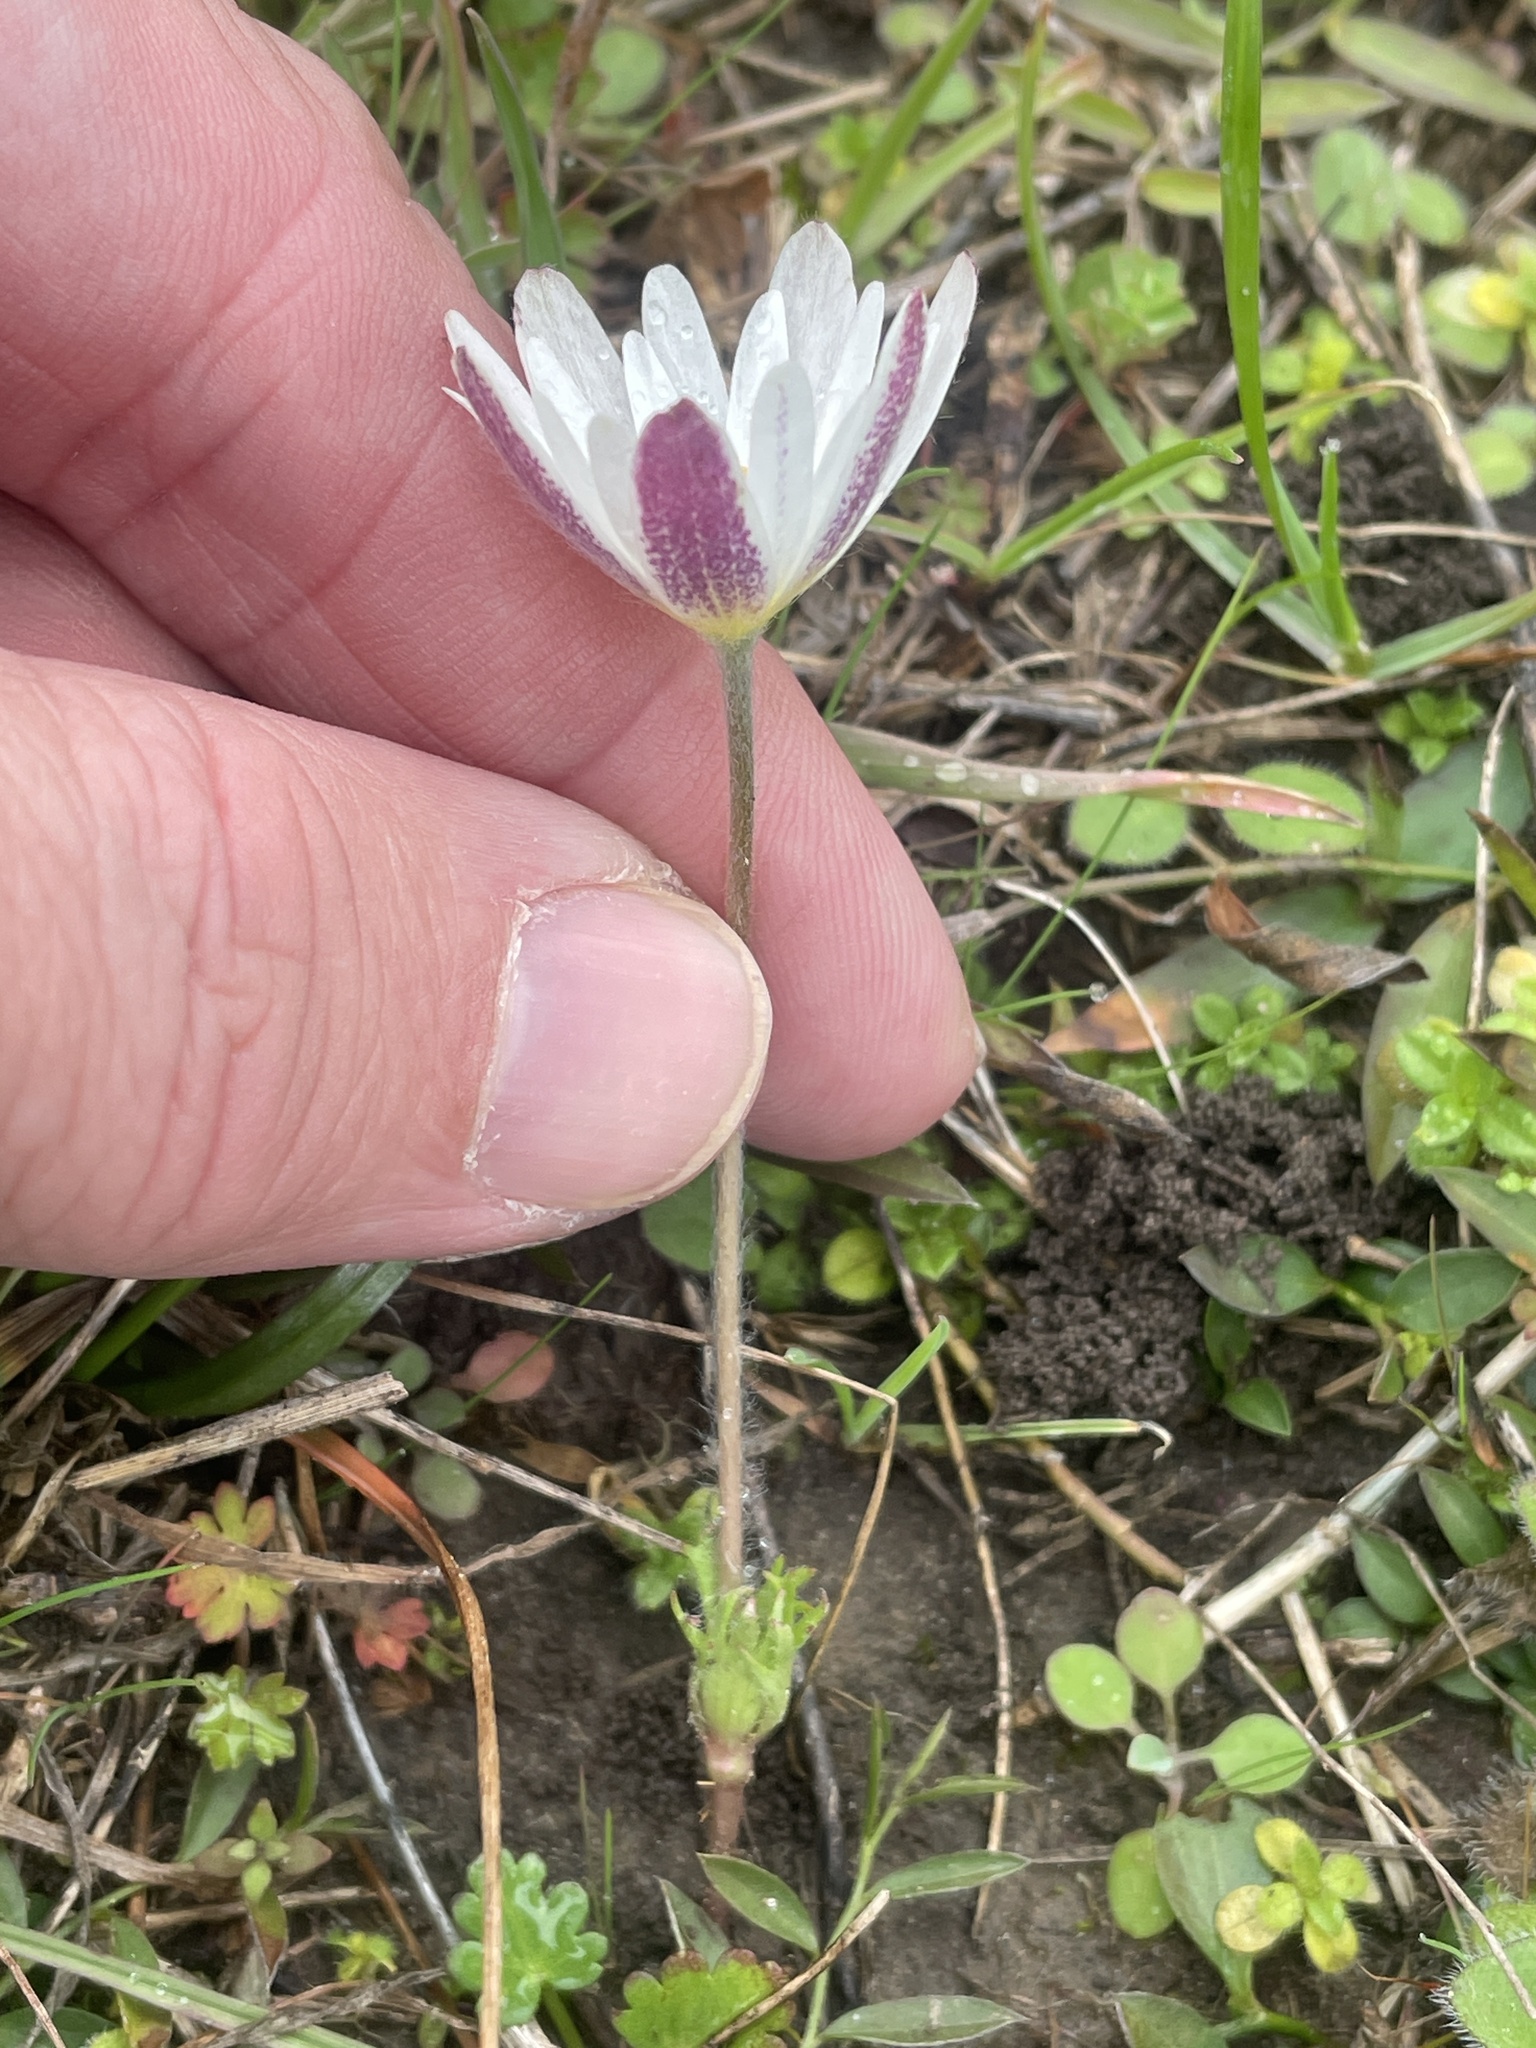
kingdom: Plantae
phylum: Tracheophyta
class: Magnoliopsida
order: Ranunculales
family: Ranunculaceae
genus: Anemone
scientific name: Anemone caroliniana
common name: Carolina anemone
